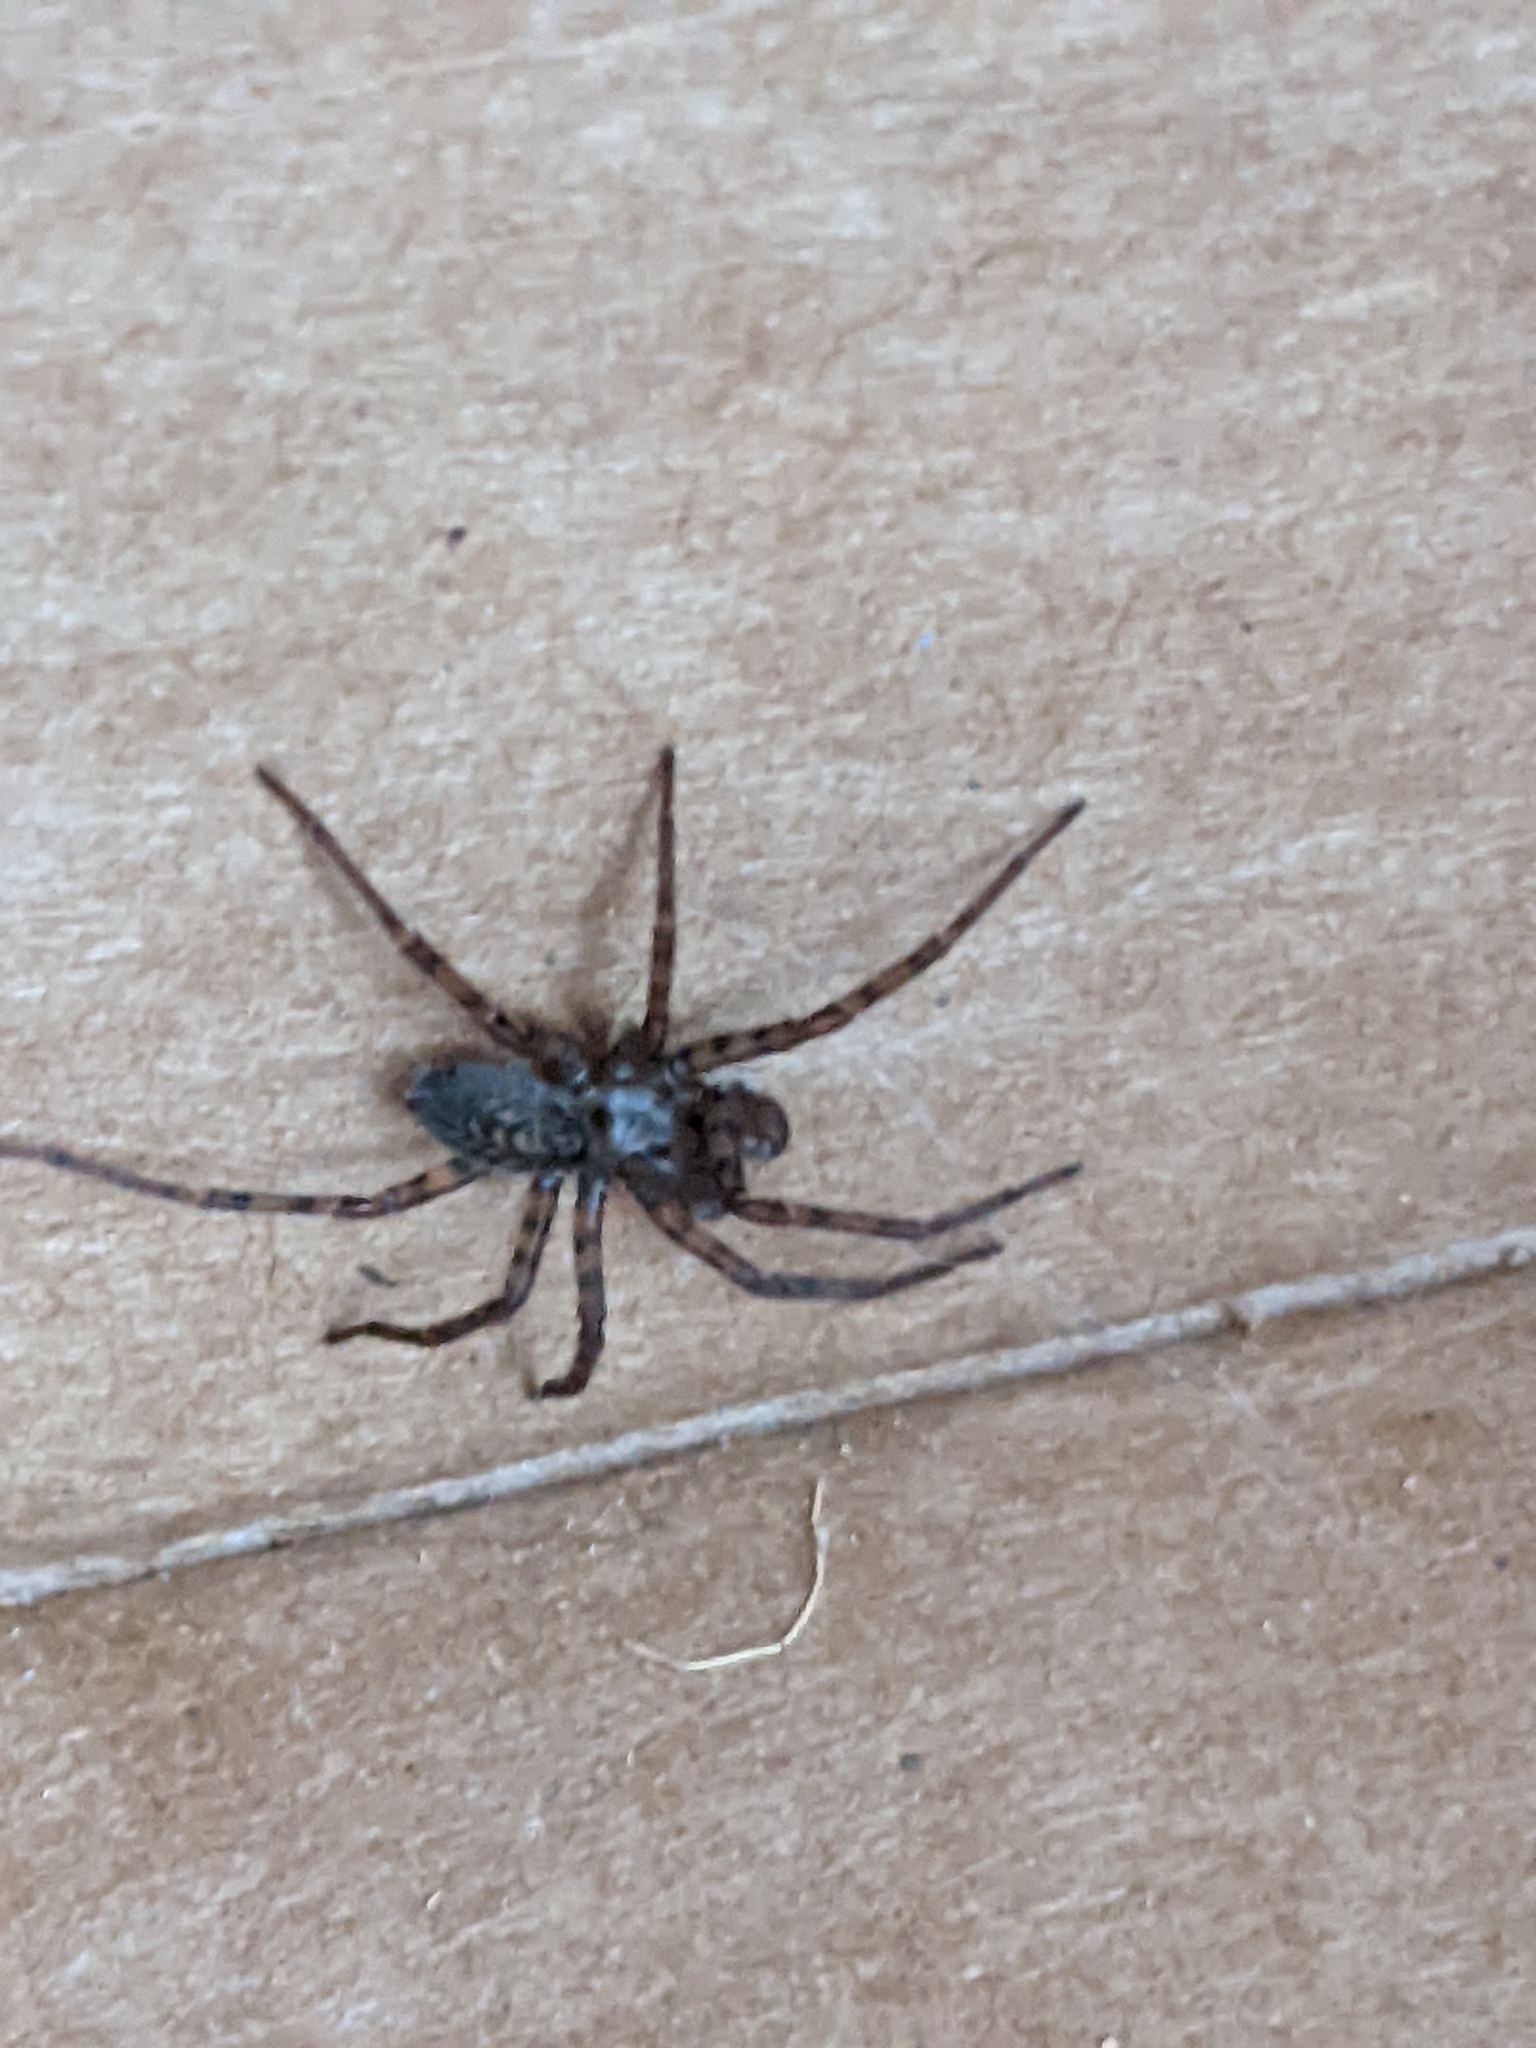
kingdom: Animalia
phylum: Arthropoda
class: Arachnida
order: Araneae
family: Agelenidae
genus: Coras
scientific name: Coras
